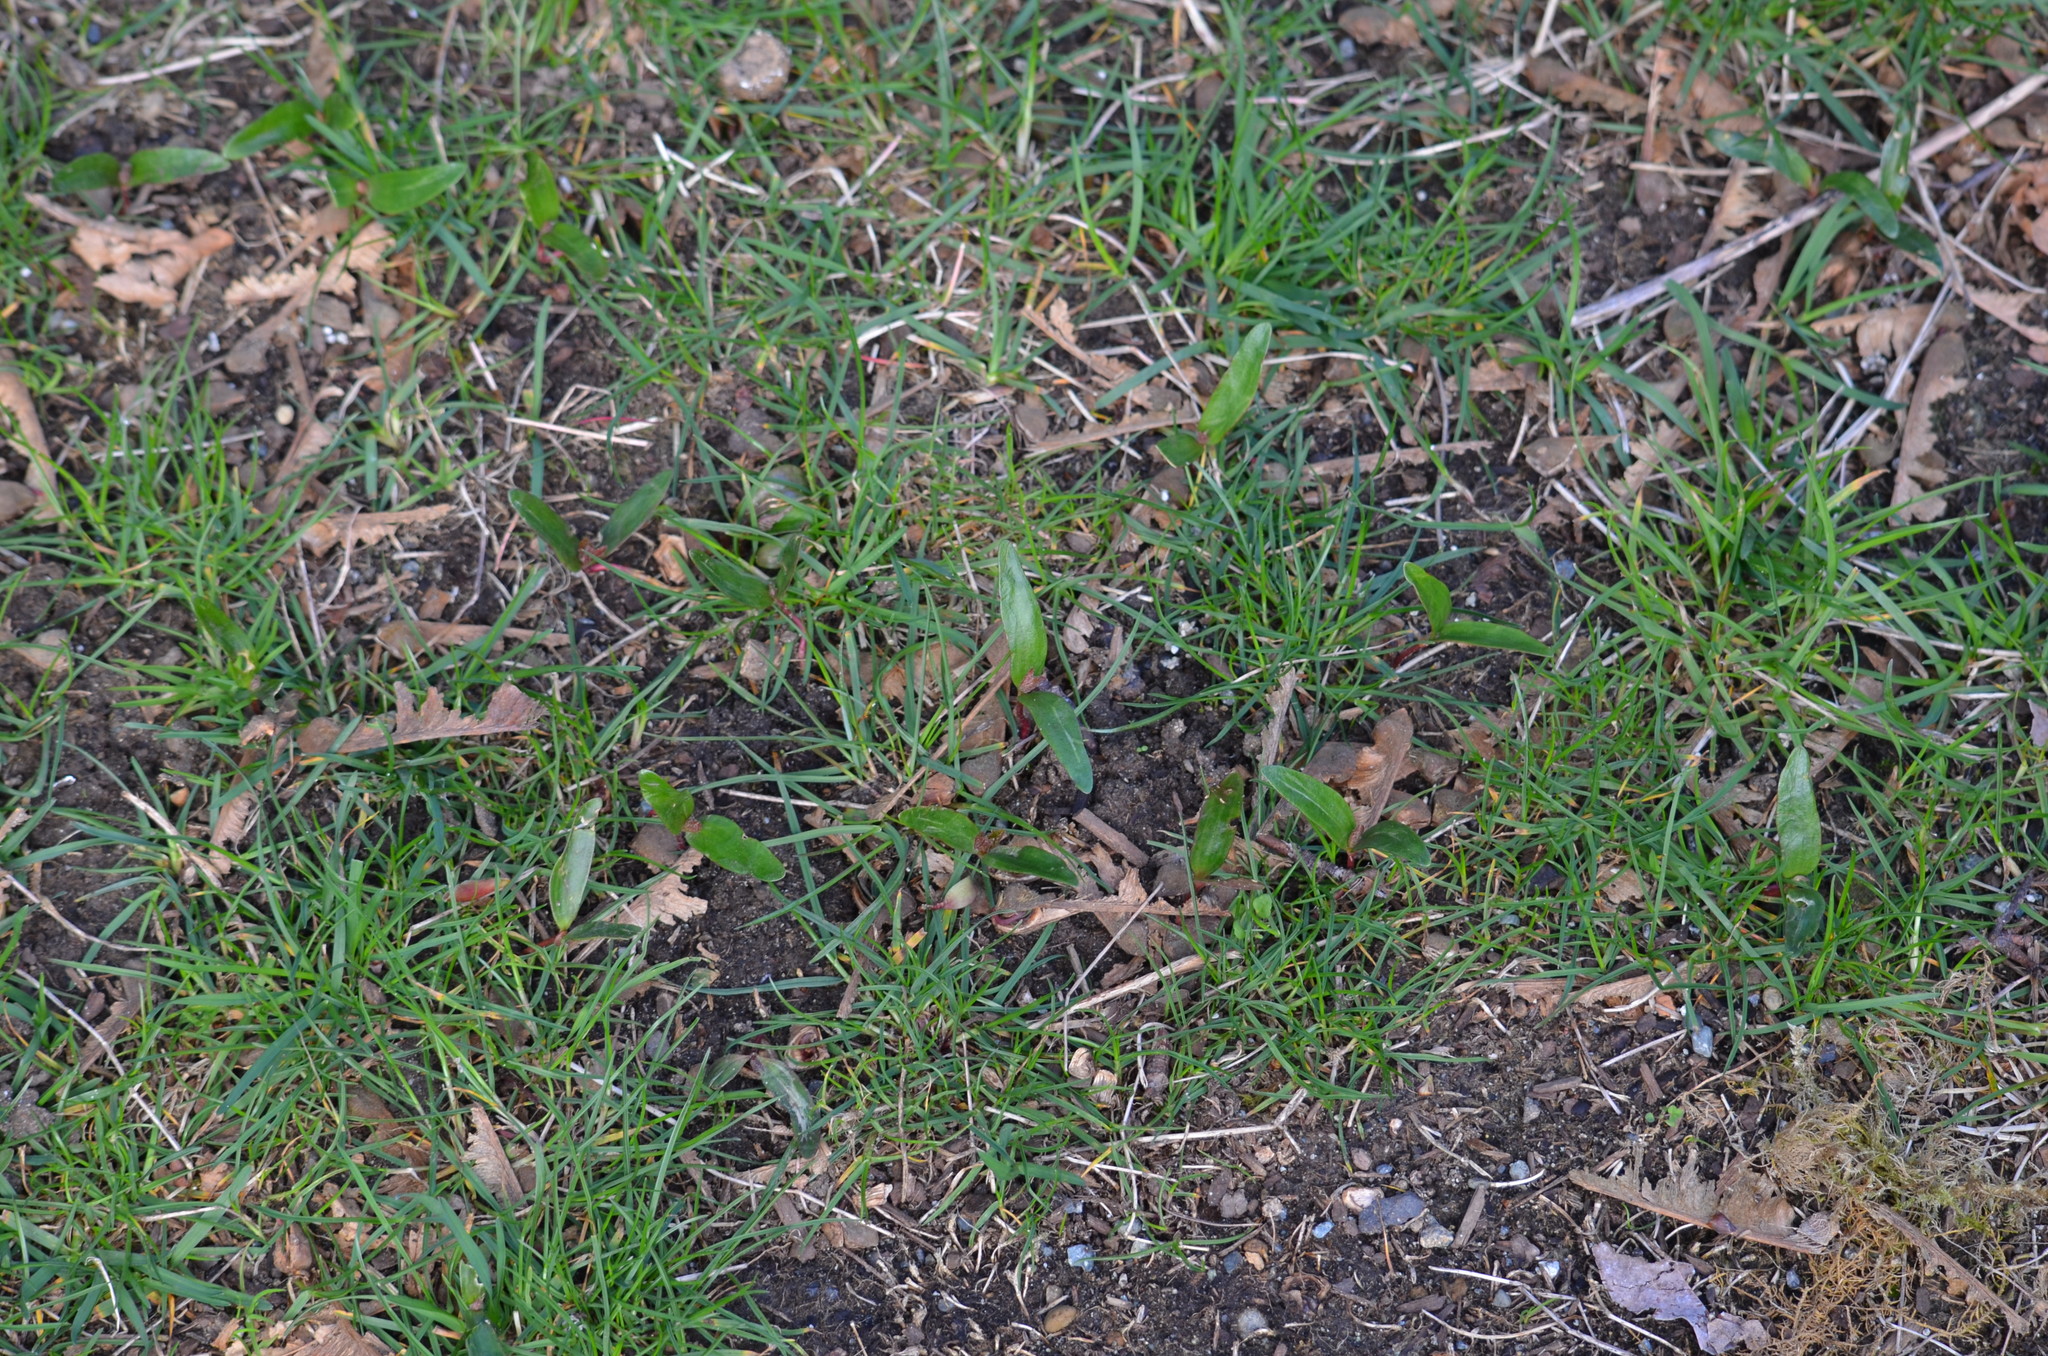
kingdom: Plantae
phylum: Tracheophyta
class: Magnoliopsida
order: Sapindales
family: Sapindaceae
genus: Acer
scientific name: Acer macrophyllum
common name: Oregon maple
